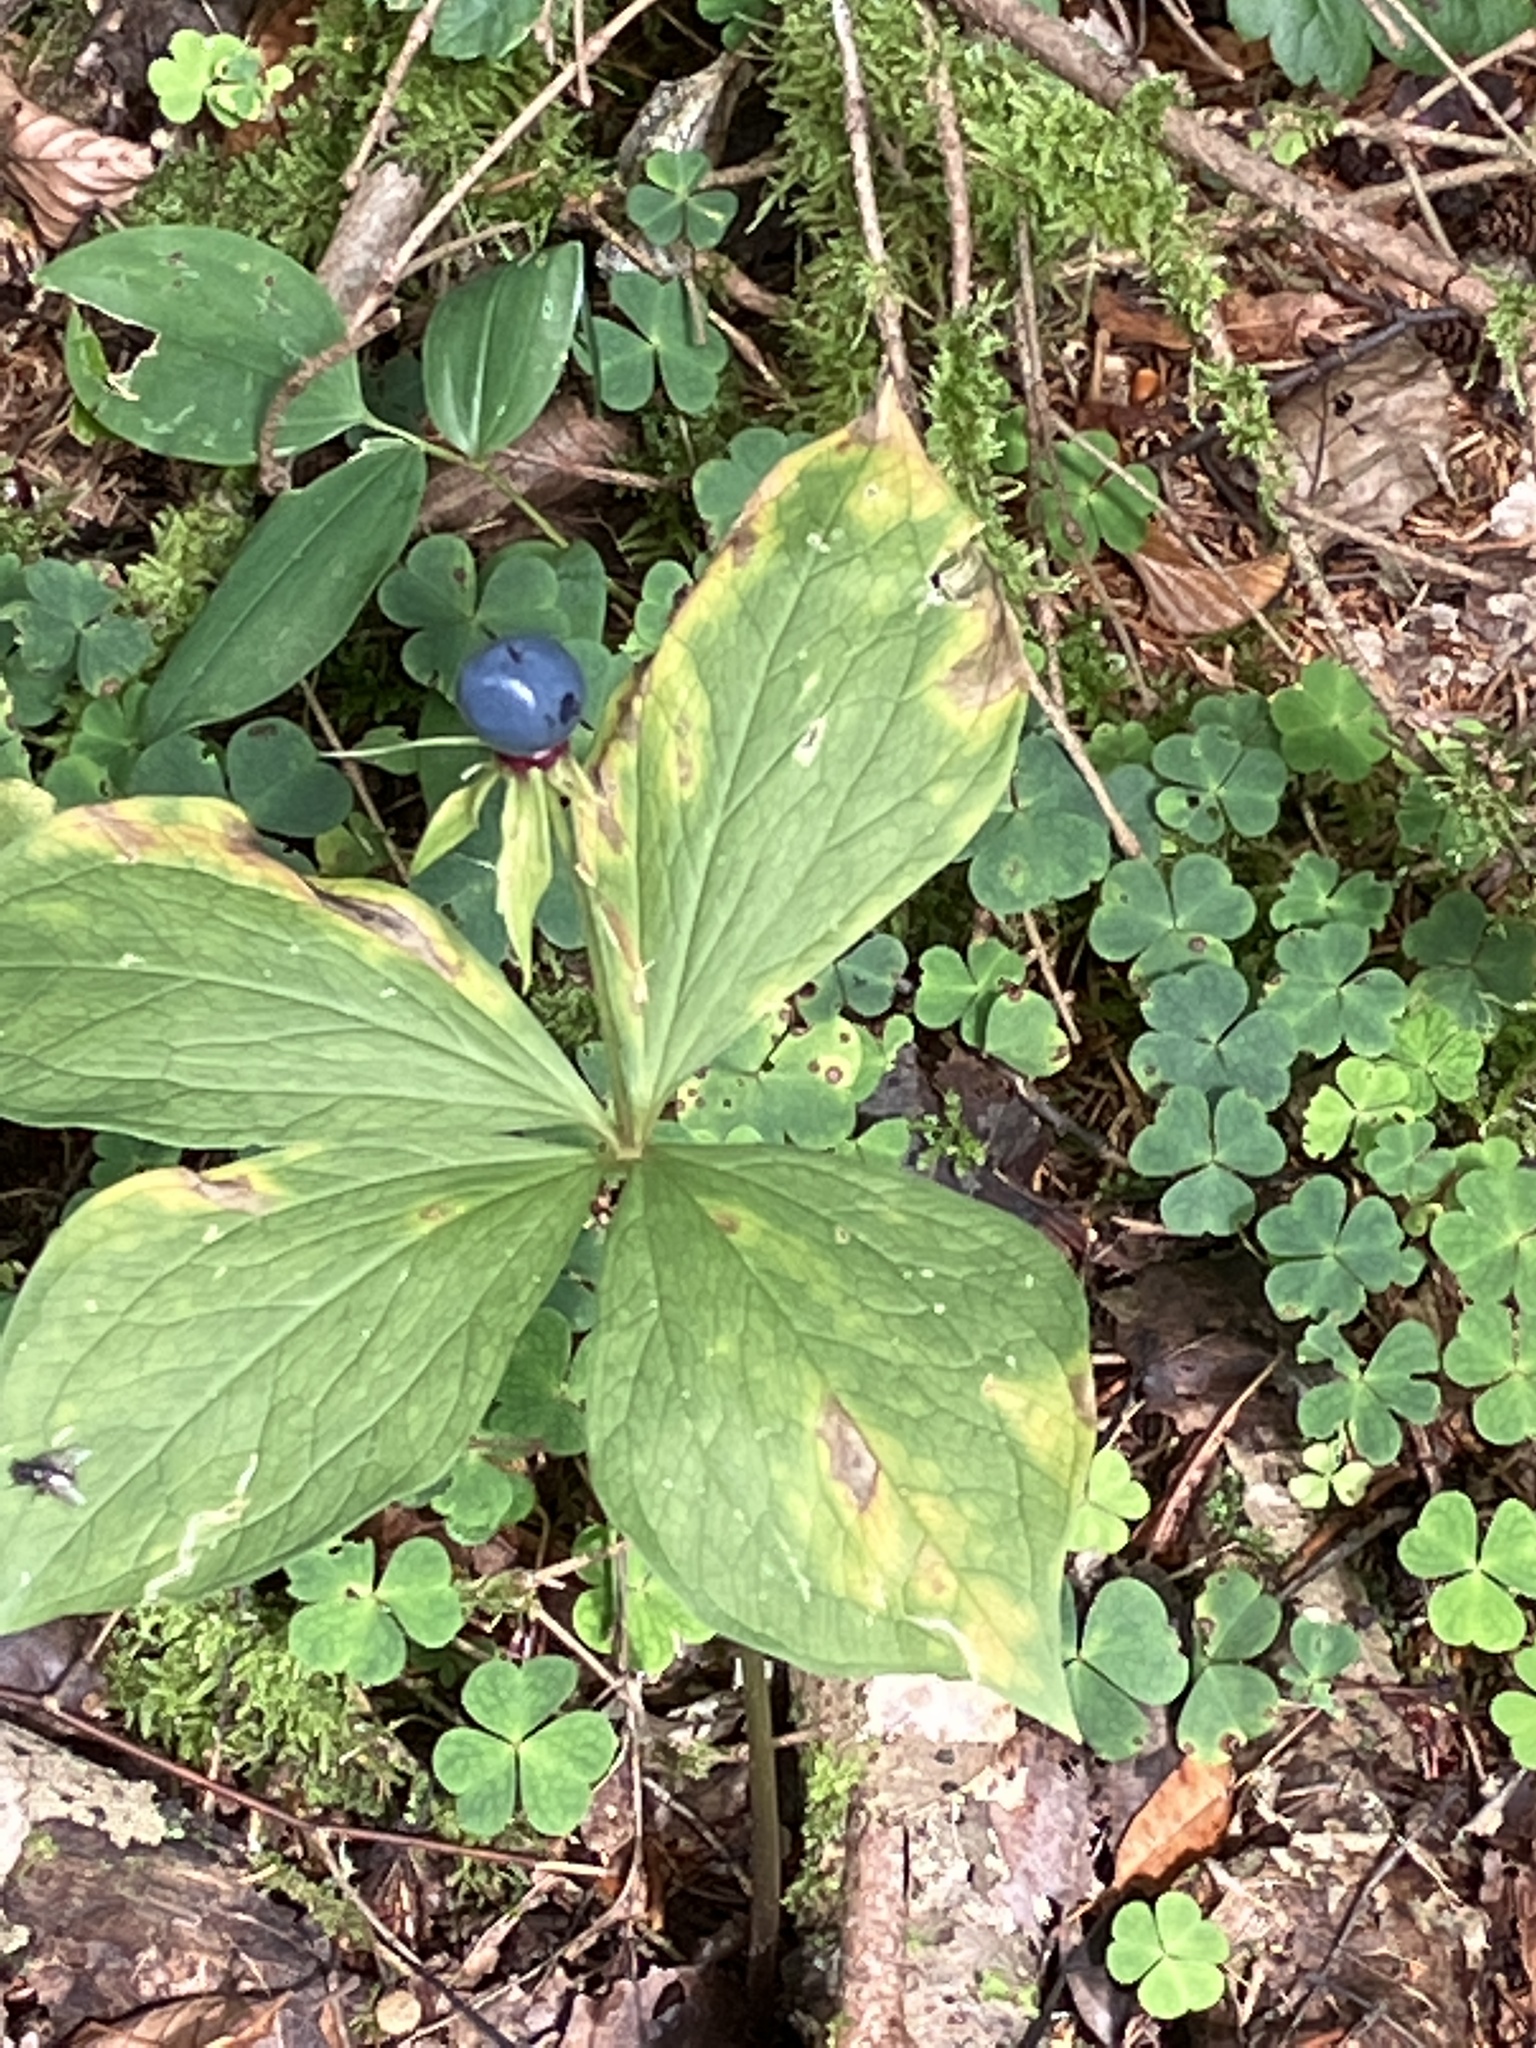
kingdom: Plantae
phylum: Tracheophyta
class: Liliopsida
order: Liliales
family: Melanthiaceae
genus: Paris
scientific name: Paris quadrifolia
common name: Herb-paris
